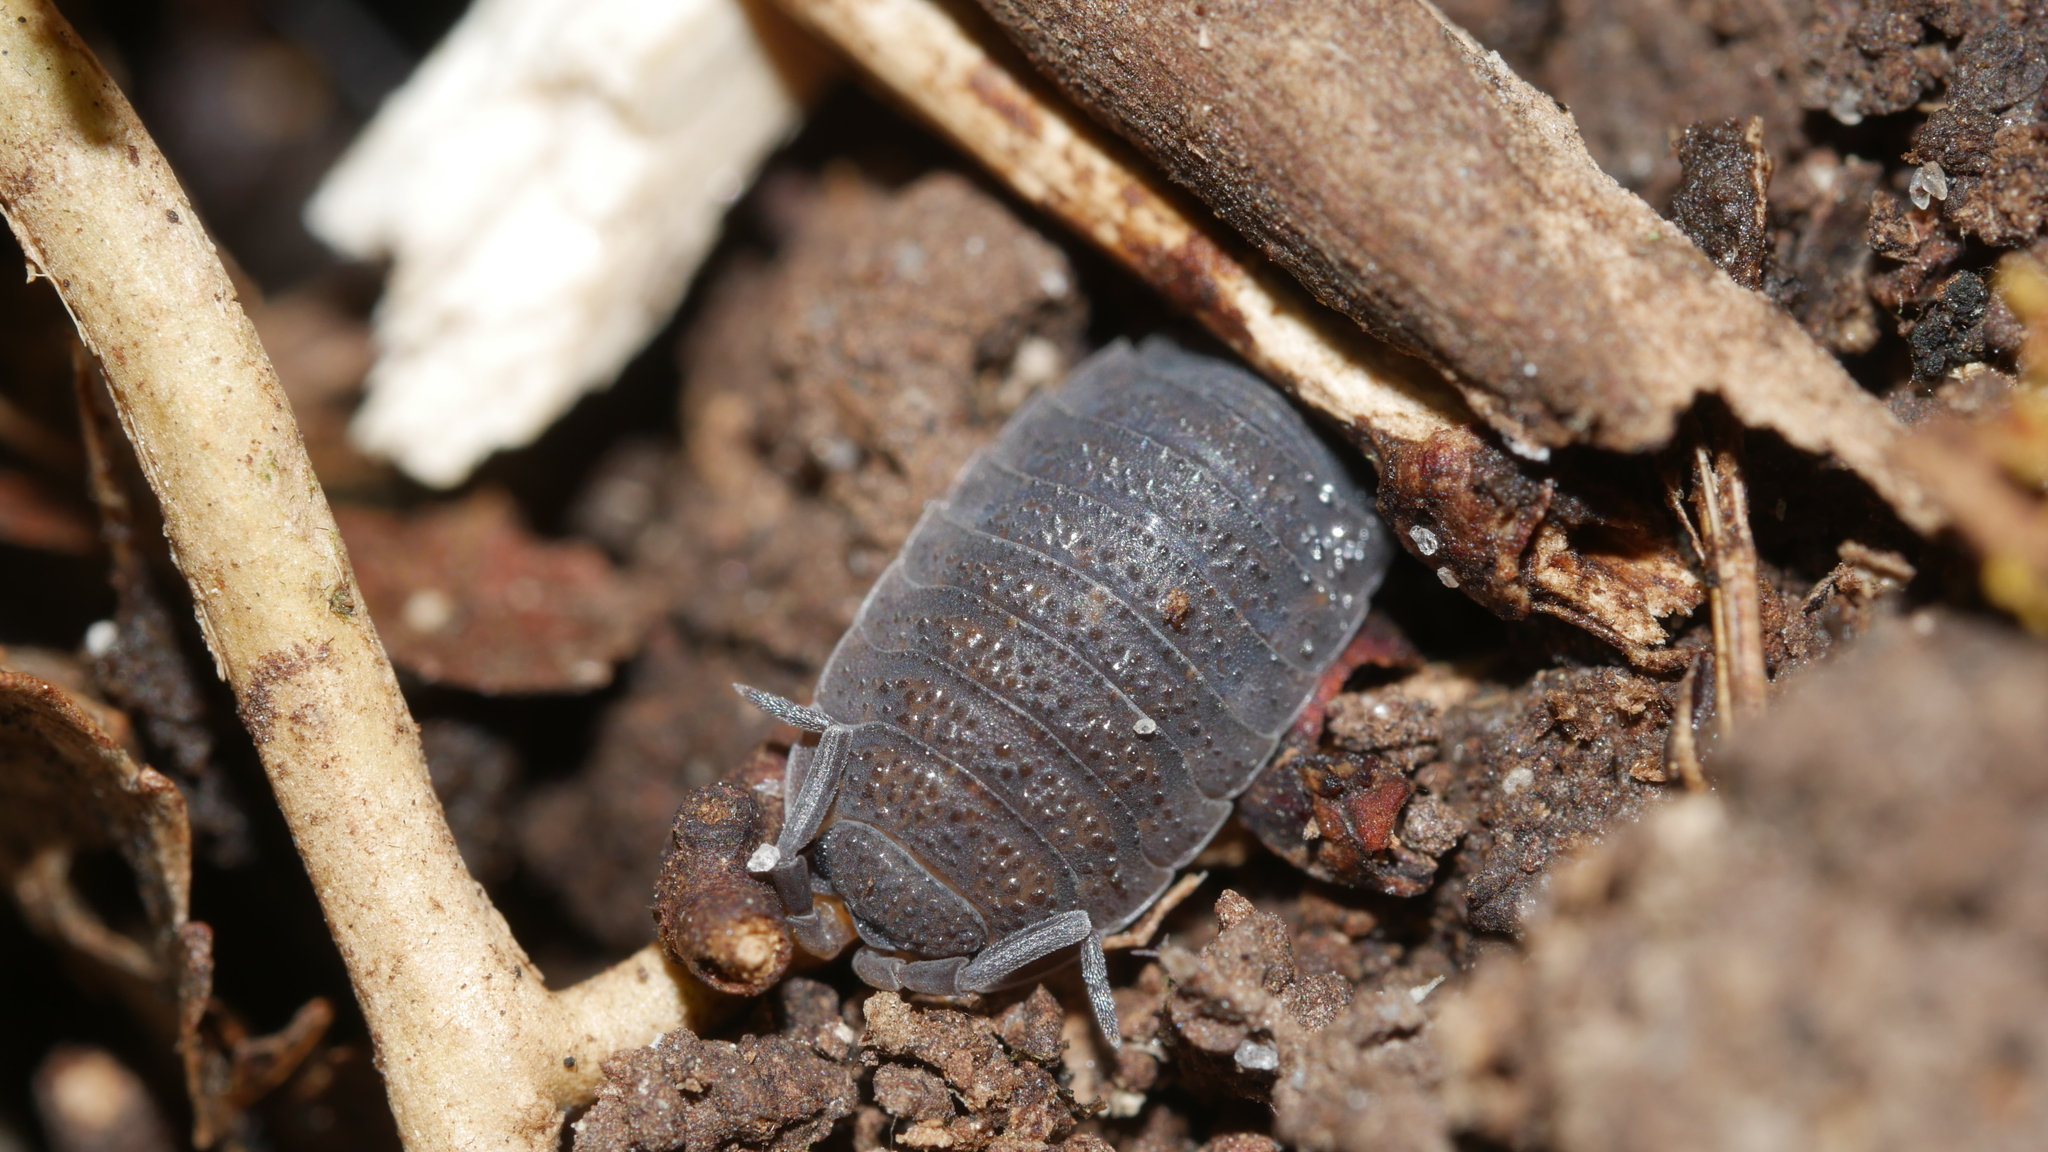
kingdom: Animalia
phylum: Arthropoda
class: Malacostraca
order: Isopoda
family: Porcellionidae
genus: Porcellio
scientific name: Porcellio scaber
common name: Common rough woodlouse
